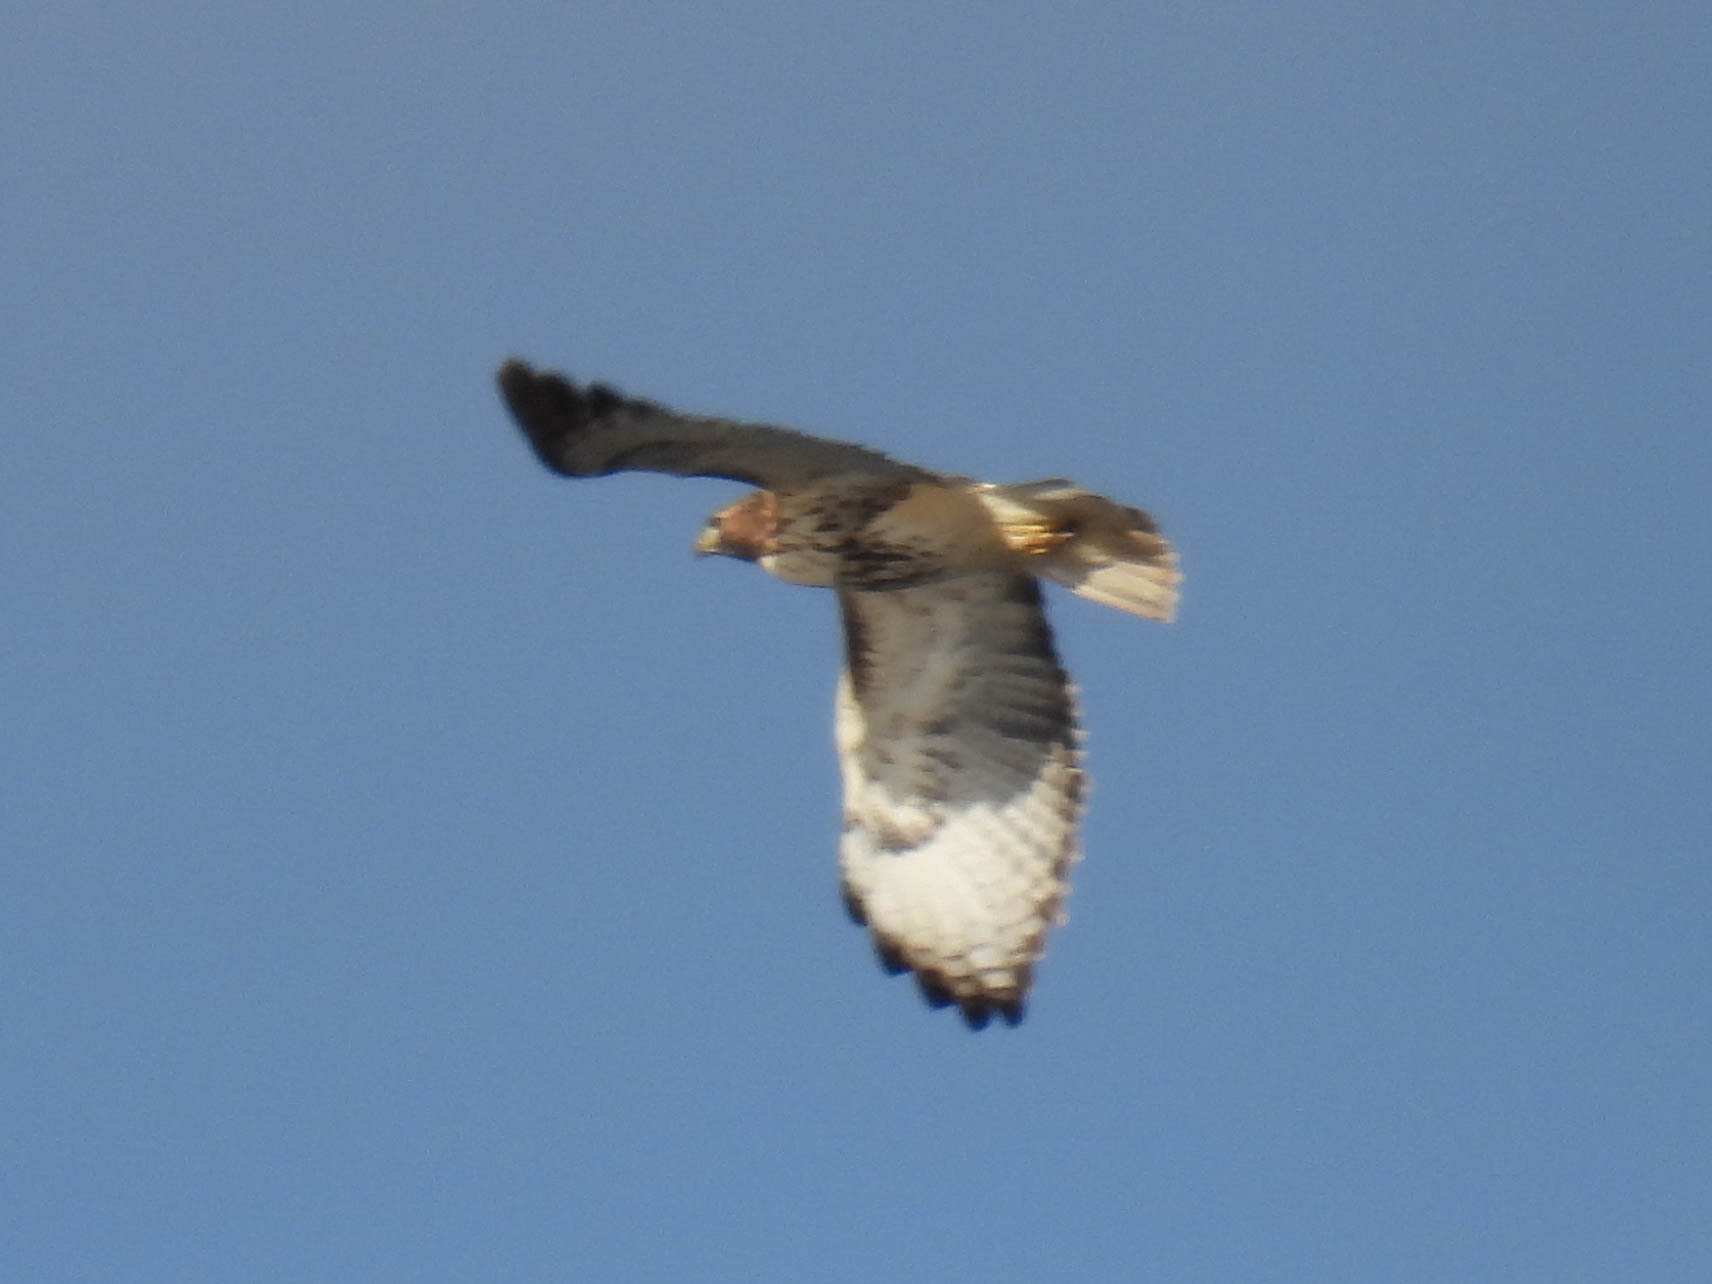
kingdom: Animalia
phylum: Chordata
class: Aves
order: Accipitriformes
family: Accipitridae
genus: Buteo
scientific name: Buteo jamaicensis
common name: Red-tailed hawk
